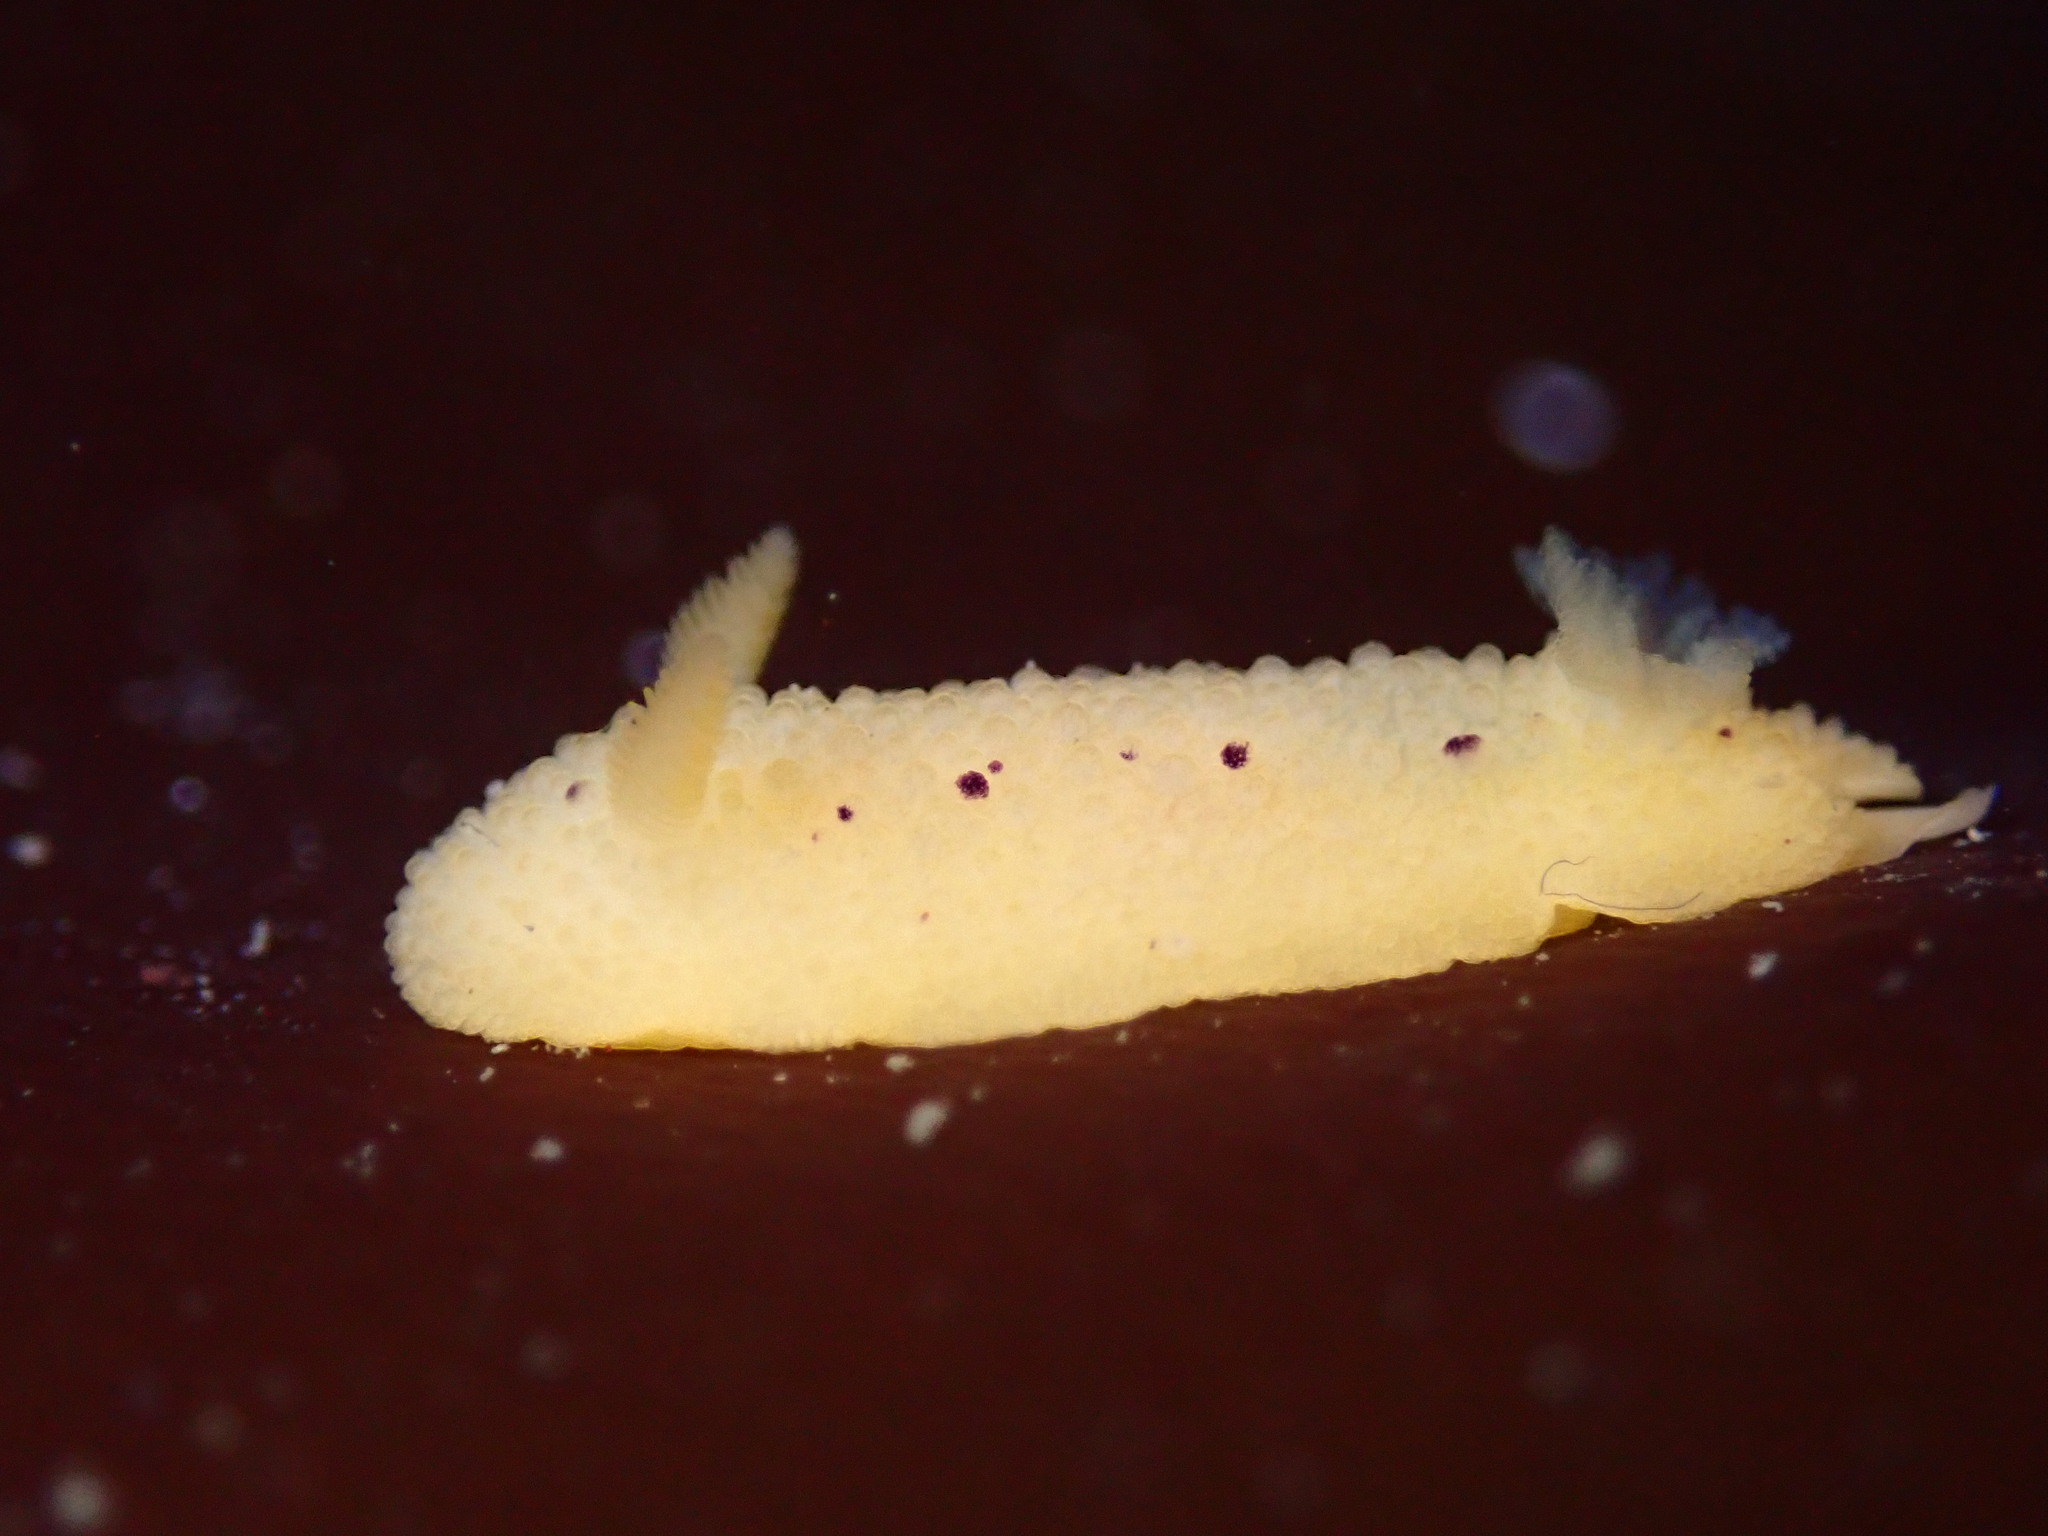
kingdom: Animalia
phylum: Mollusca
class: Gastropoda
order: Nudibranchia
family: Dorididae
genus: Doris
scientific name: Doris montereyensis
